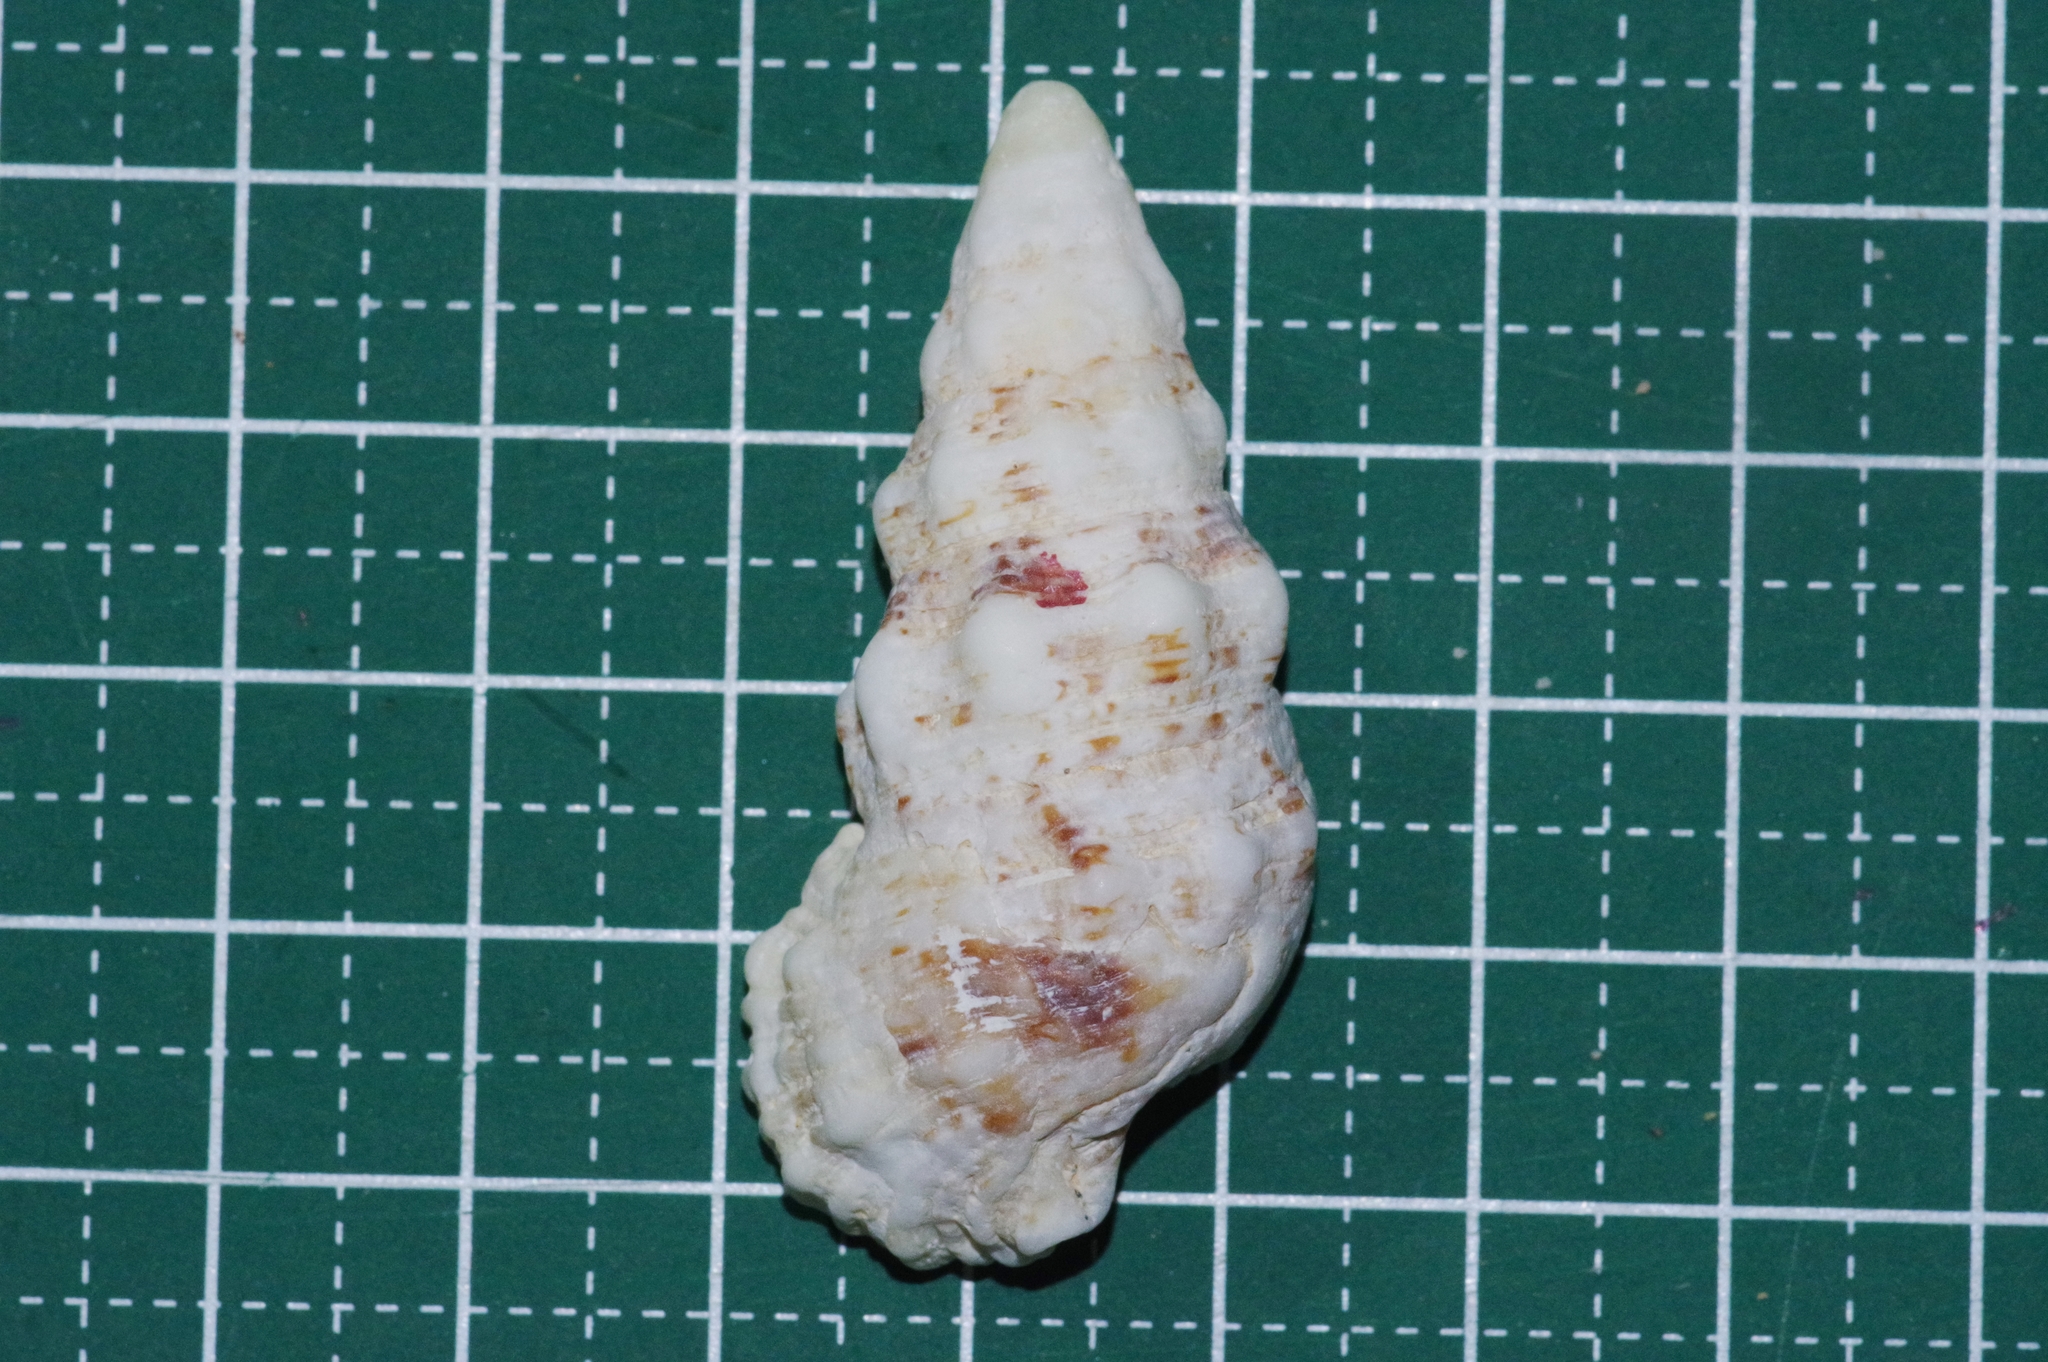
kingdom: Animalia
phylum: Mollusca
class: Gastropoda
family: Cerithiidae
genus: Cerithium
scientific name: Cerithium echinatum
